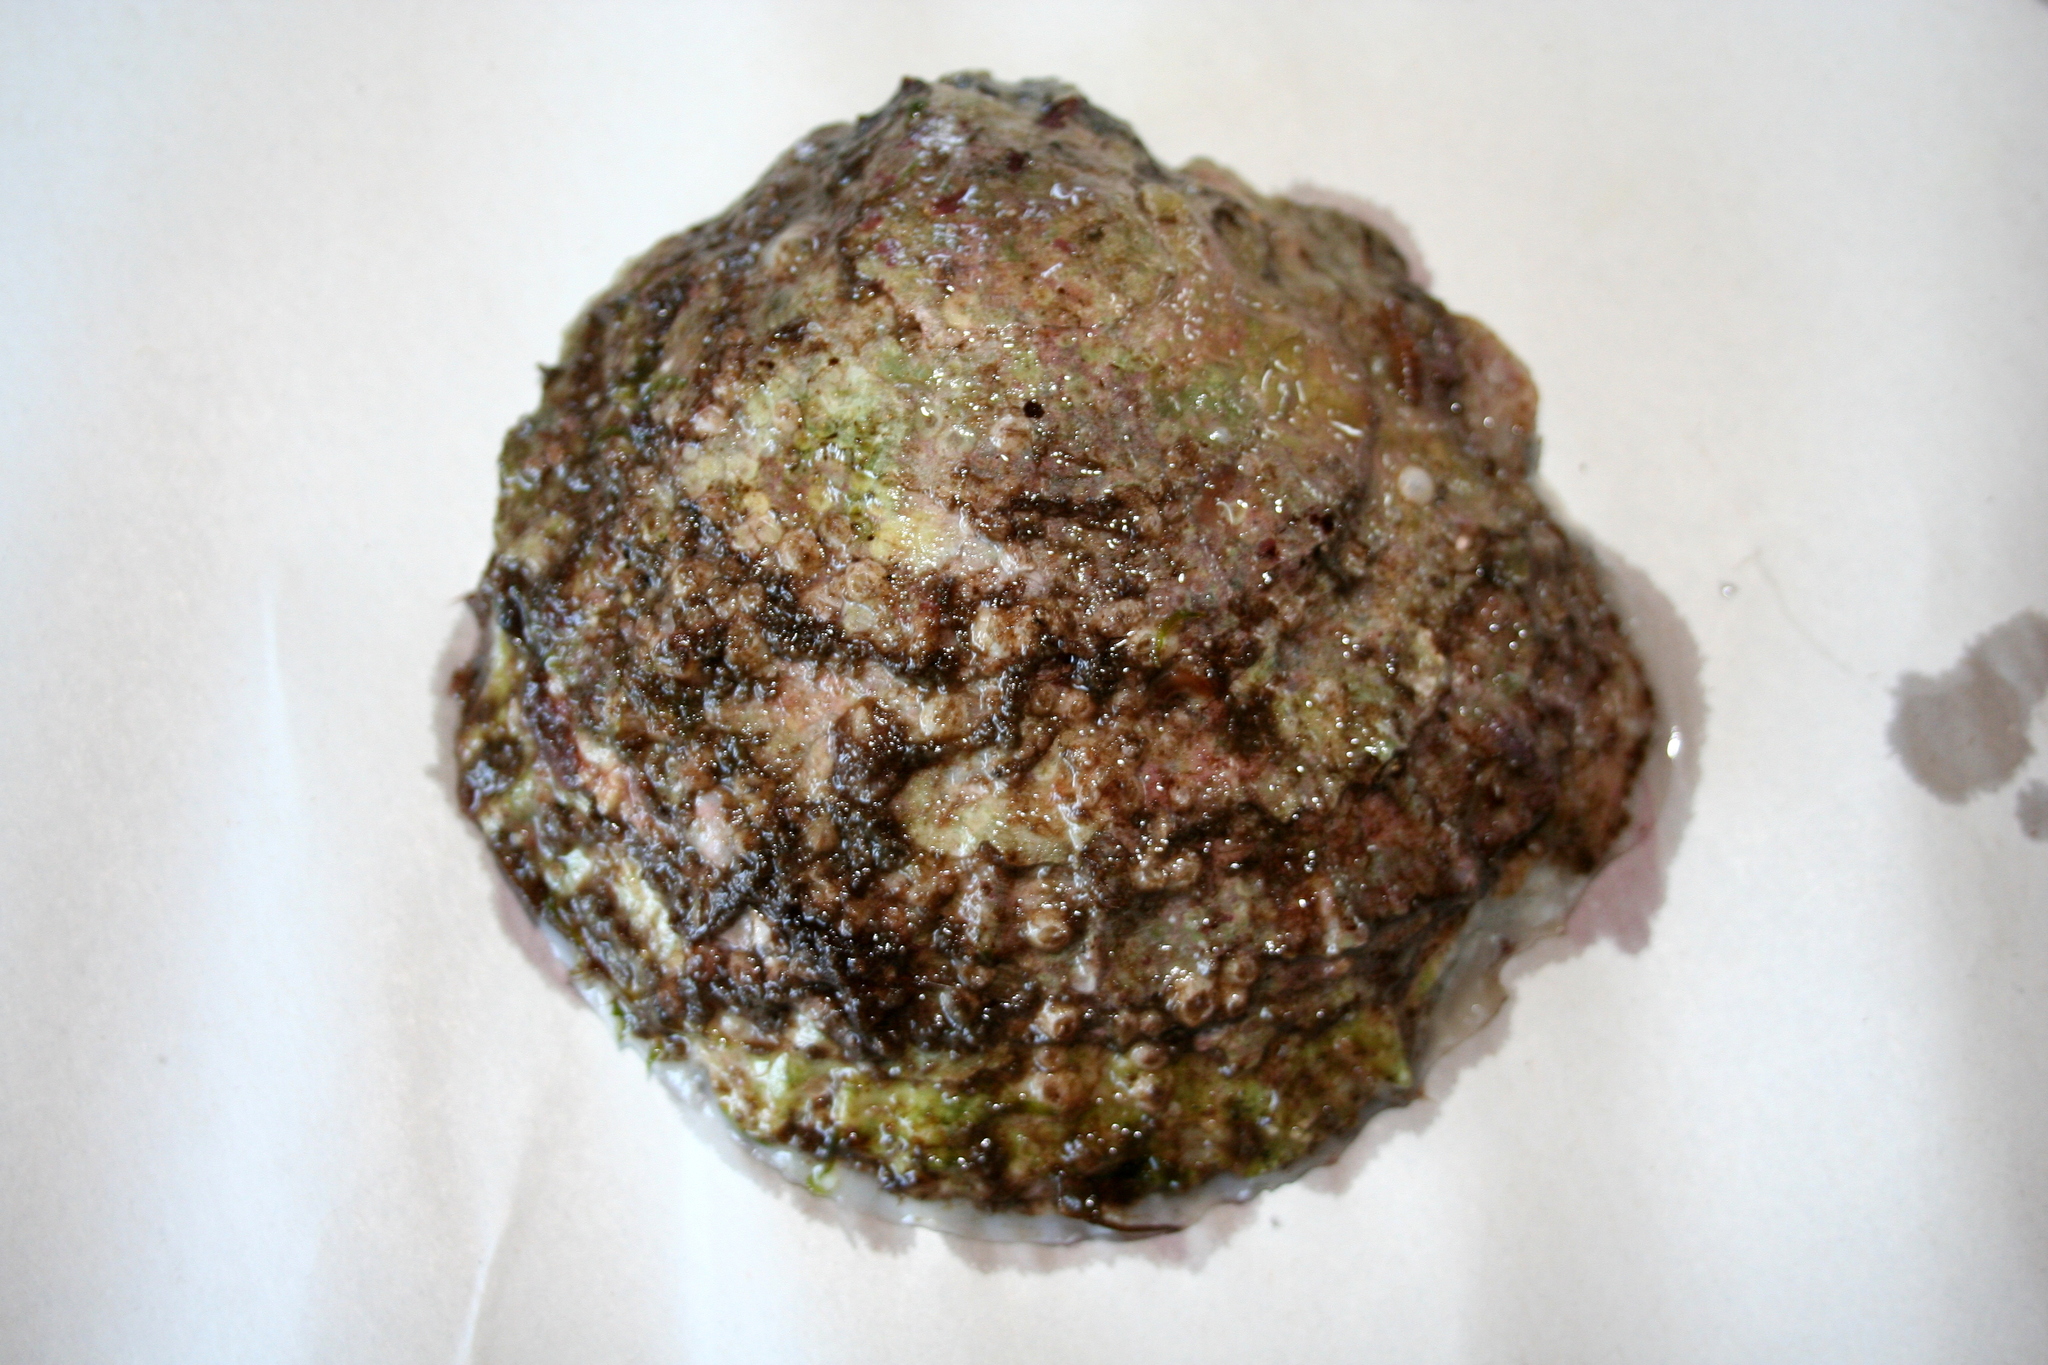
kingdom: Animalia
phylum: Mollusca
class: Bivalvia
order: Ostreida
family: Ostreidae
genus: Ostrea
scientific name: Ostrea edulis
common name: Flat oyster
